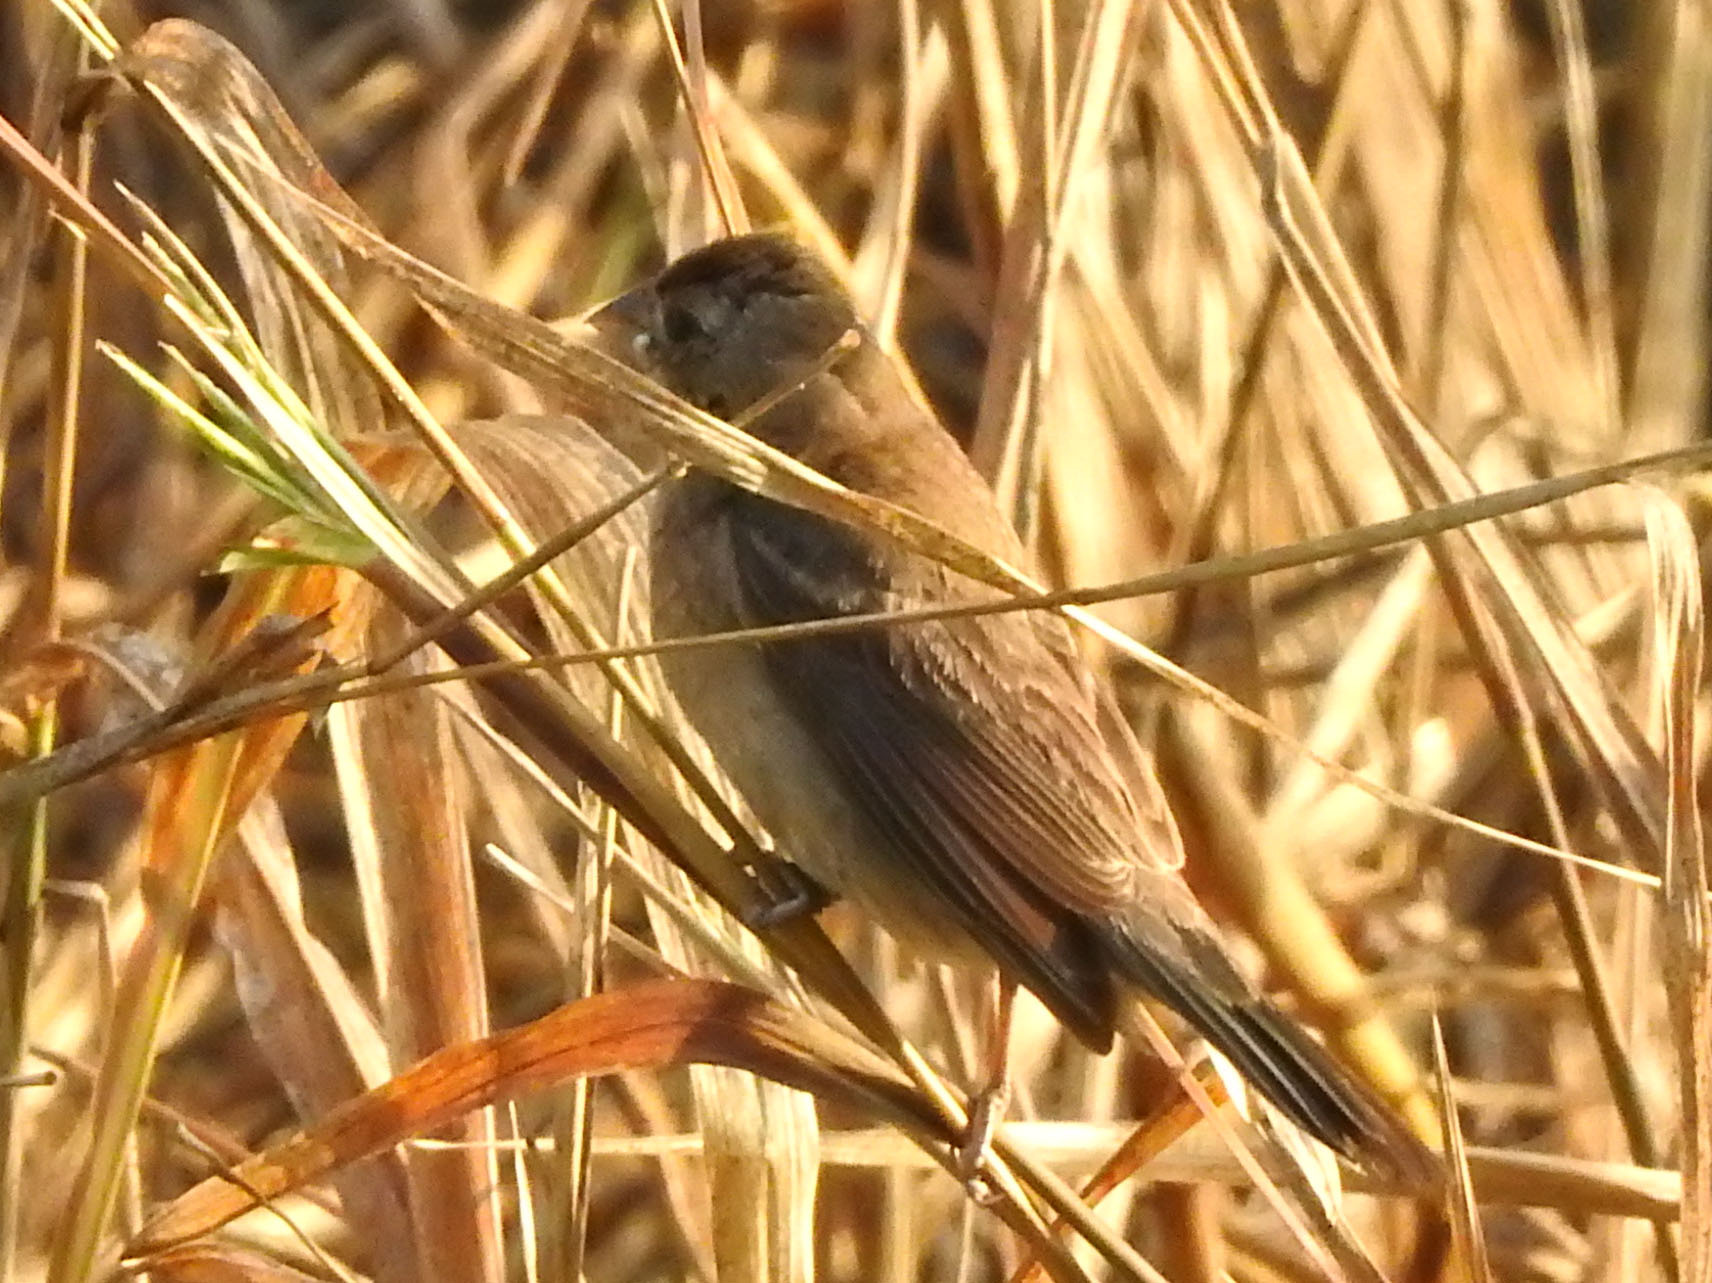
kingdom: Animalia
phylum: Chordata
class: Aves
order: Passeriformes
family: Cardinalidae
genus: Passerina
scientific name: Passerina caerulea
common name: Blue grosbeak
